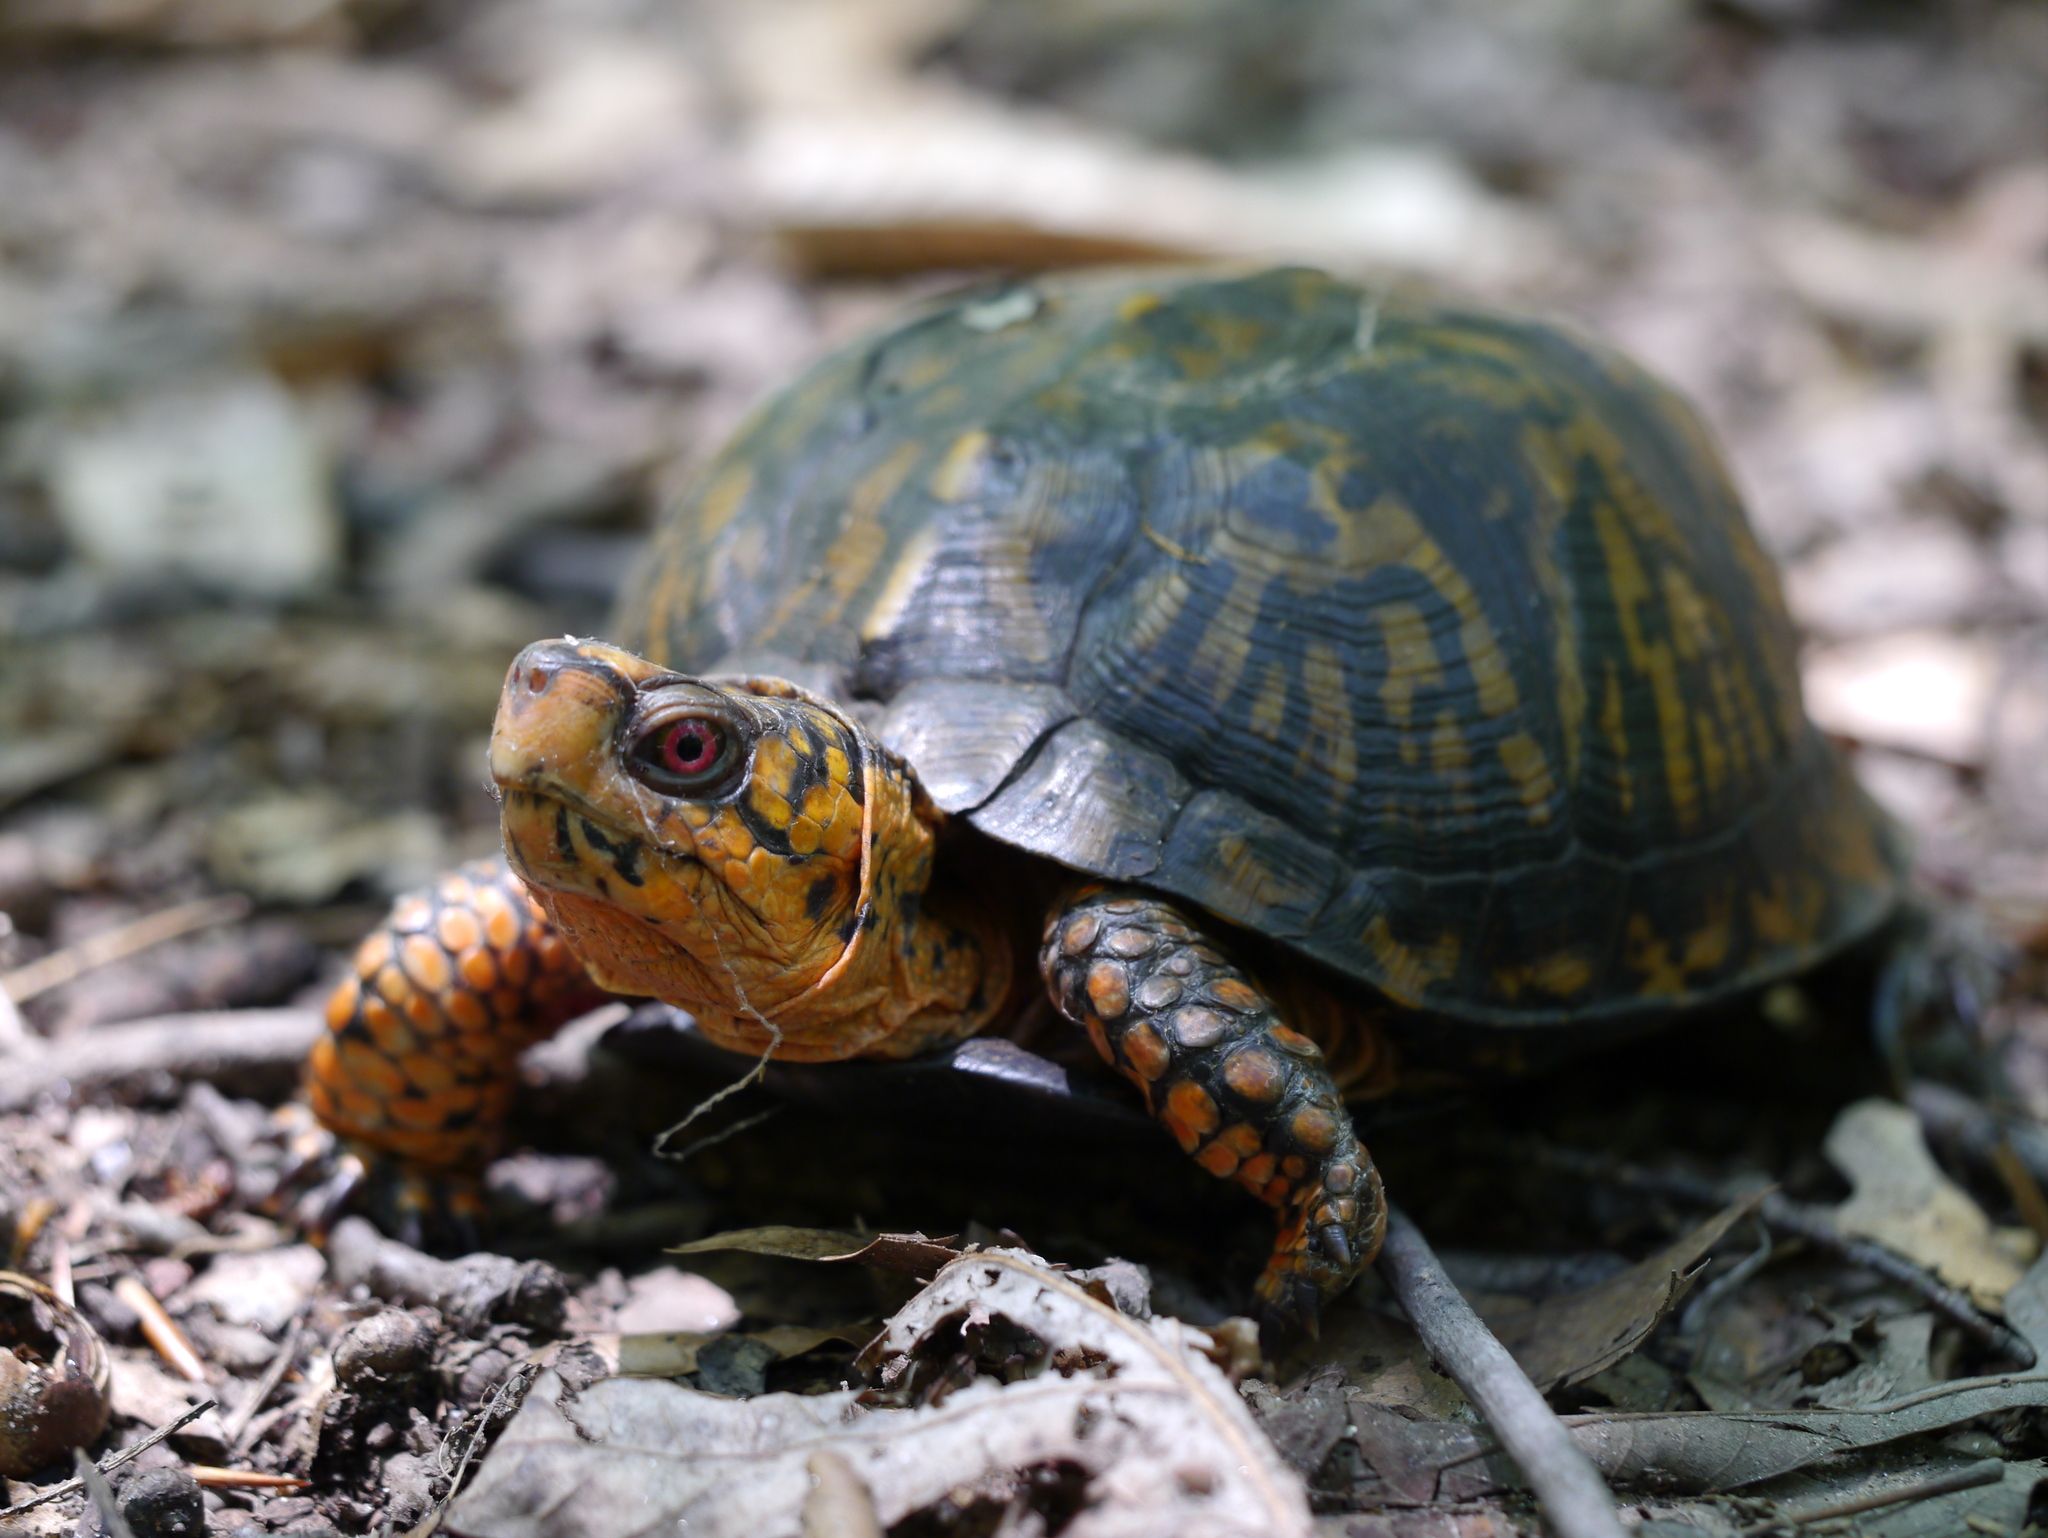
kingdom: Animalia
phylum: Chordata
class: Testudines
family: Emydidae
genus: Terrapene
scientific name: Terrapene carolina
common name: Common box turtle
